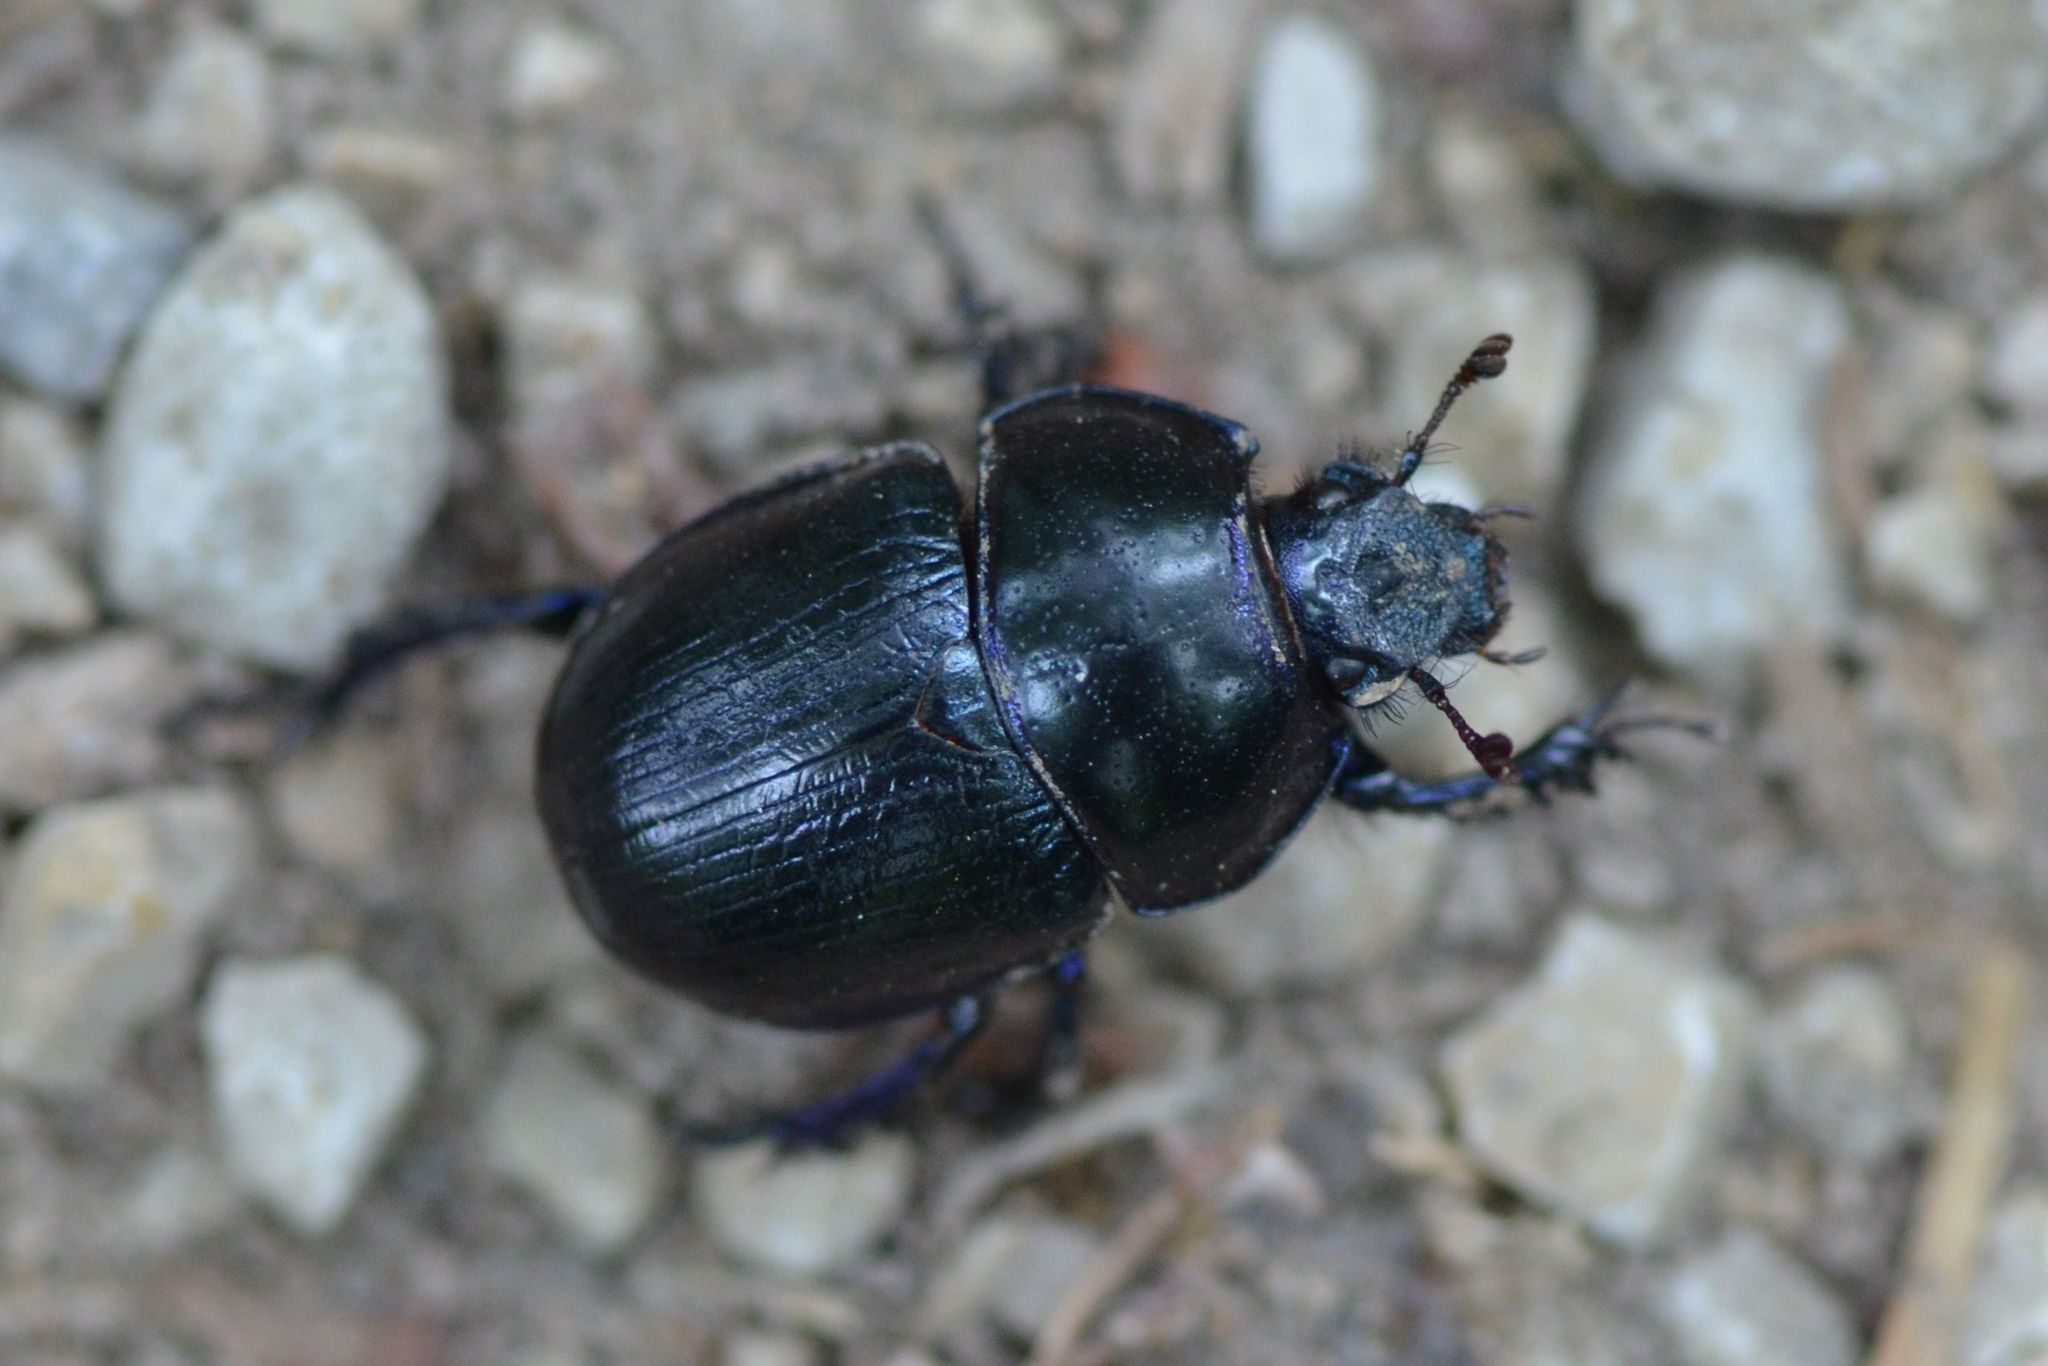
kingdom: Animalia
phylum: Arthropoda
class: Insecta
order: Coleoptera
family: Geotrupidae
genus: Anoplotrupes
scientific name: Anoplotrupes stercorosus
